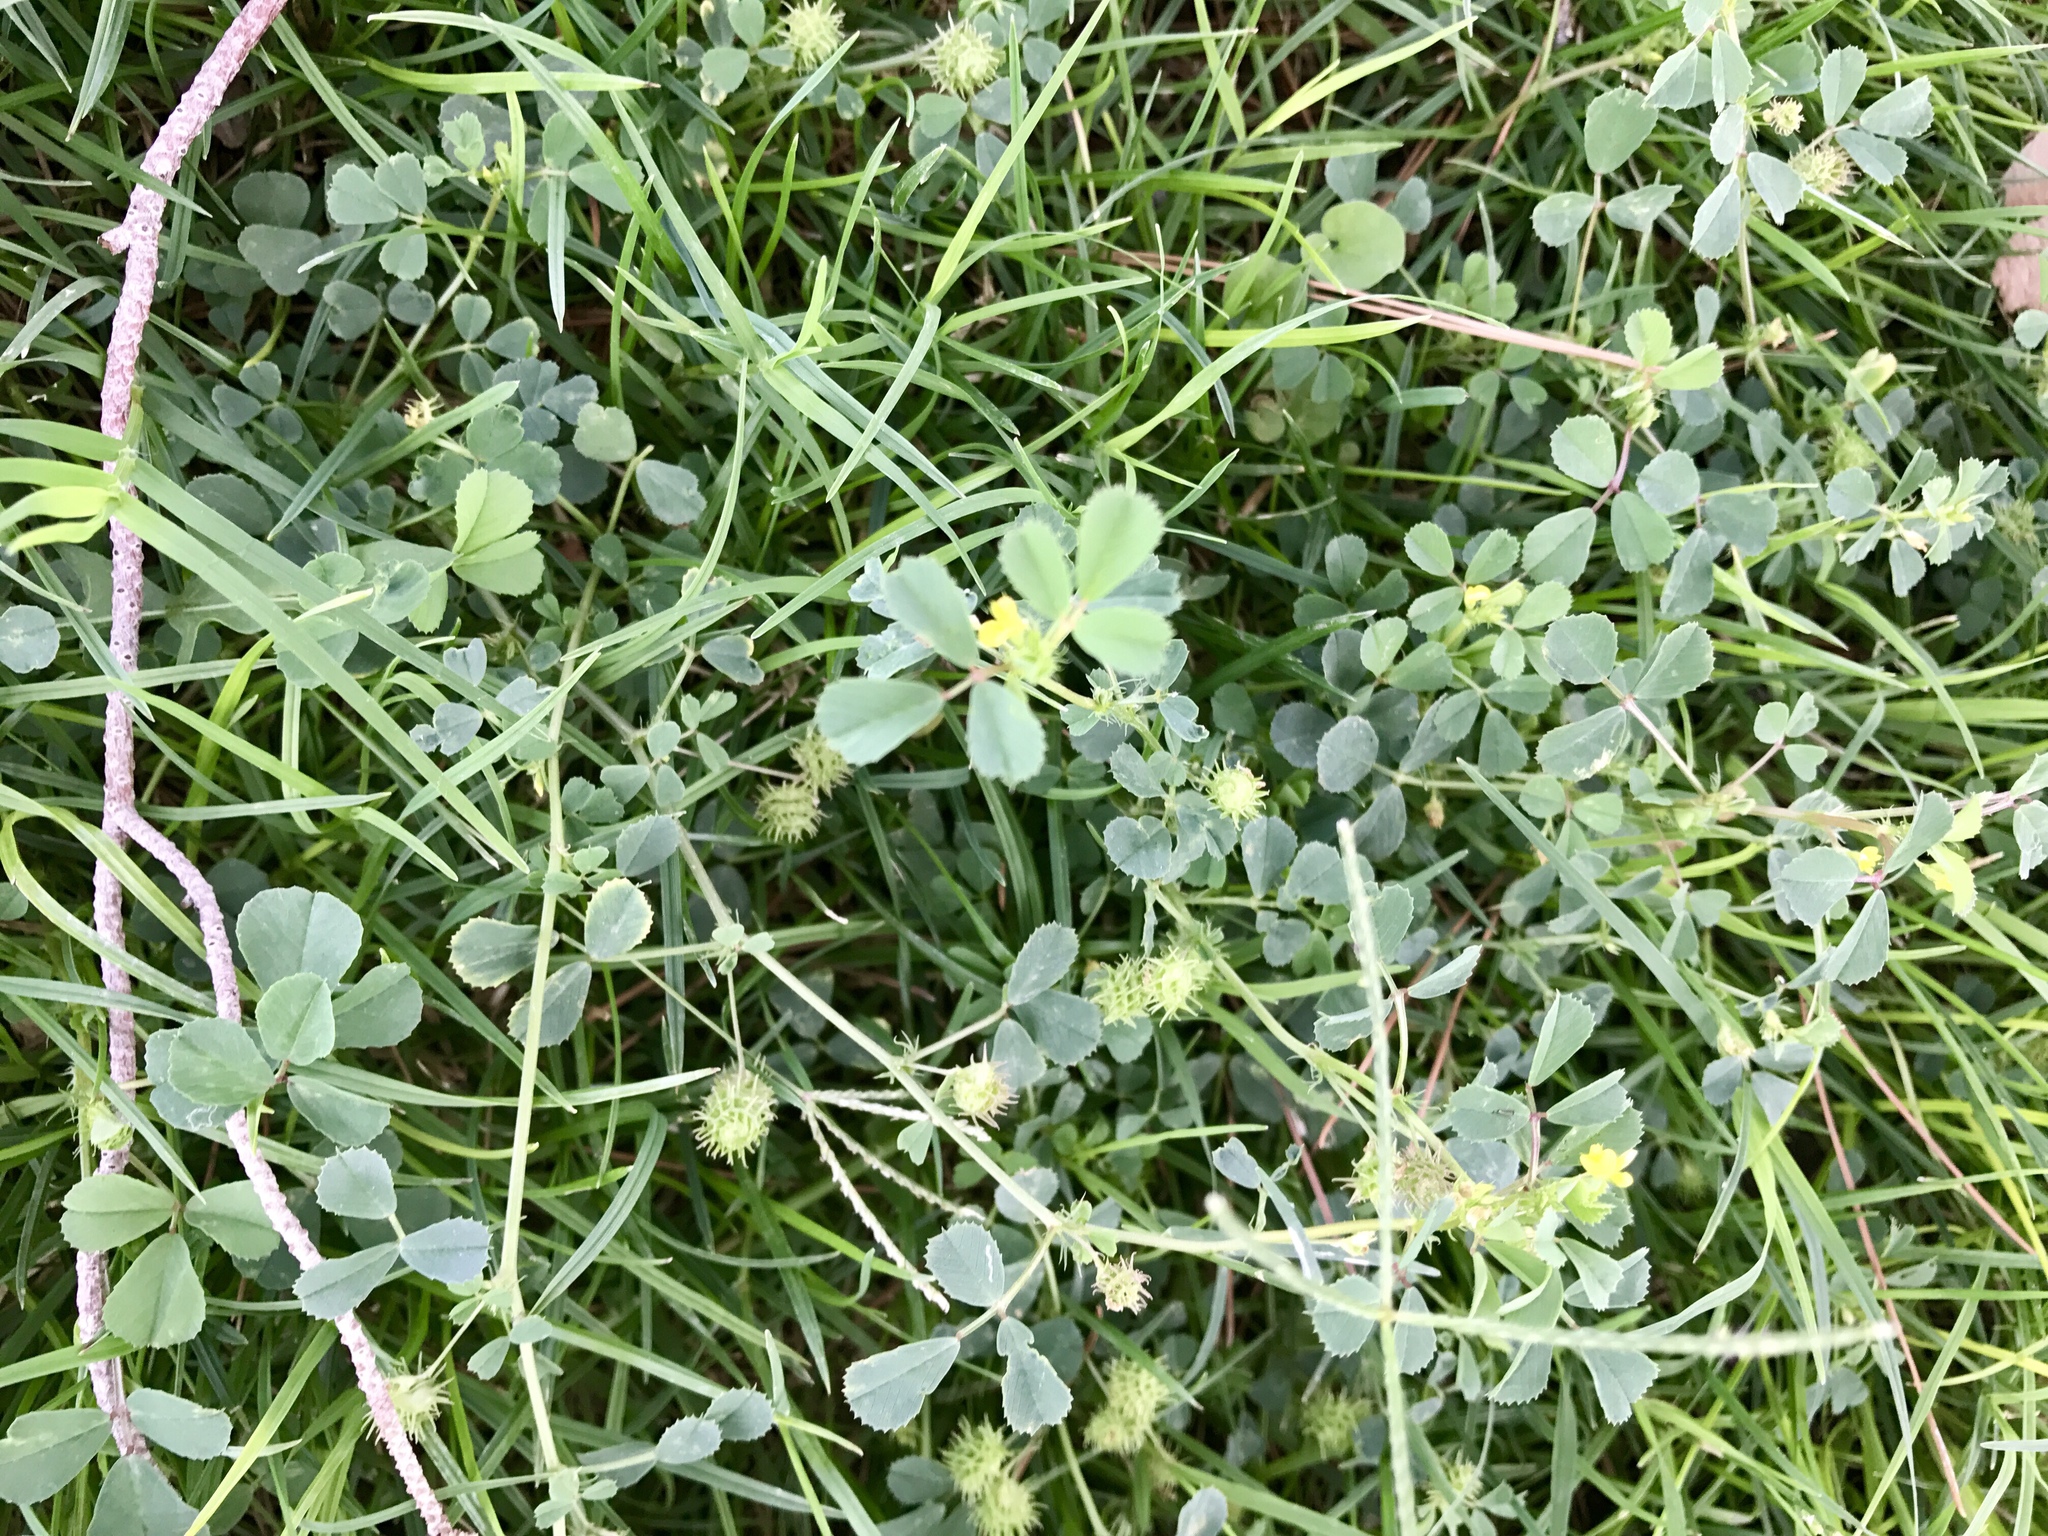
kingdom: Plantae
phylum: Tracheophyta
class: Magnoliopsida
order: Fabales
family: Fabaceae
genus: Medicago
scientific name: Medicago polymorpha
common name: Burclover
